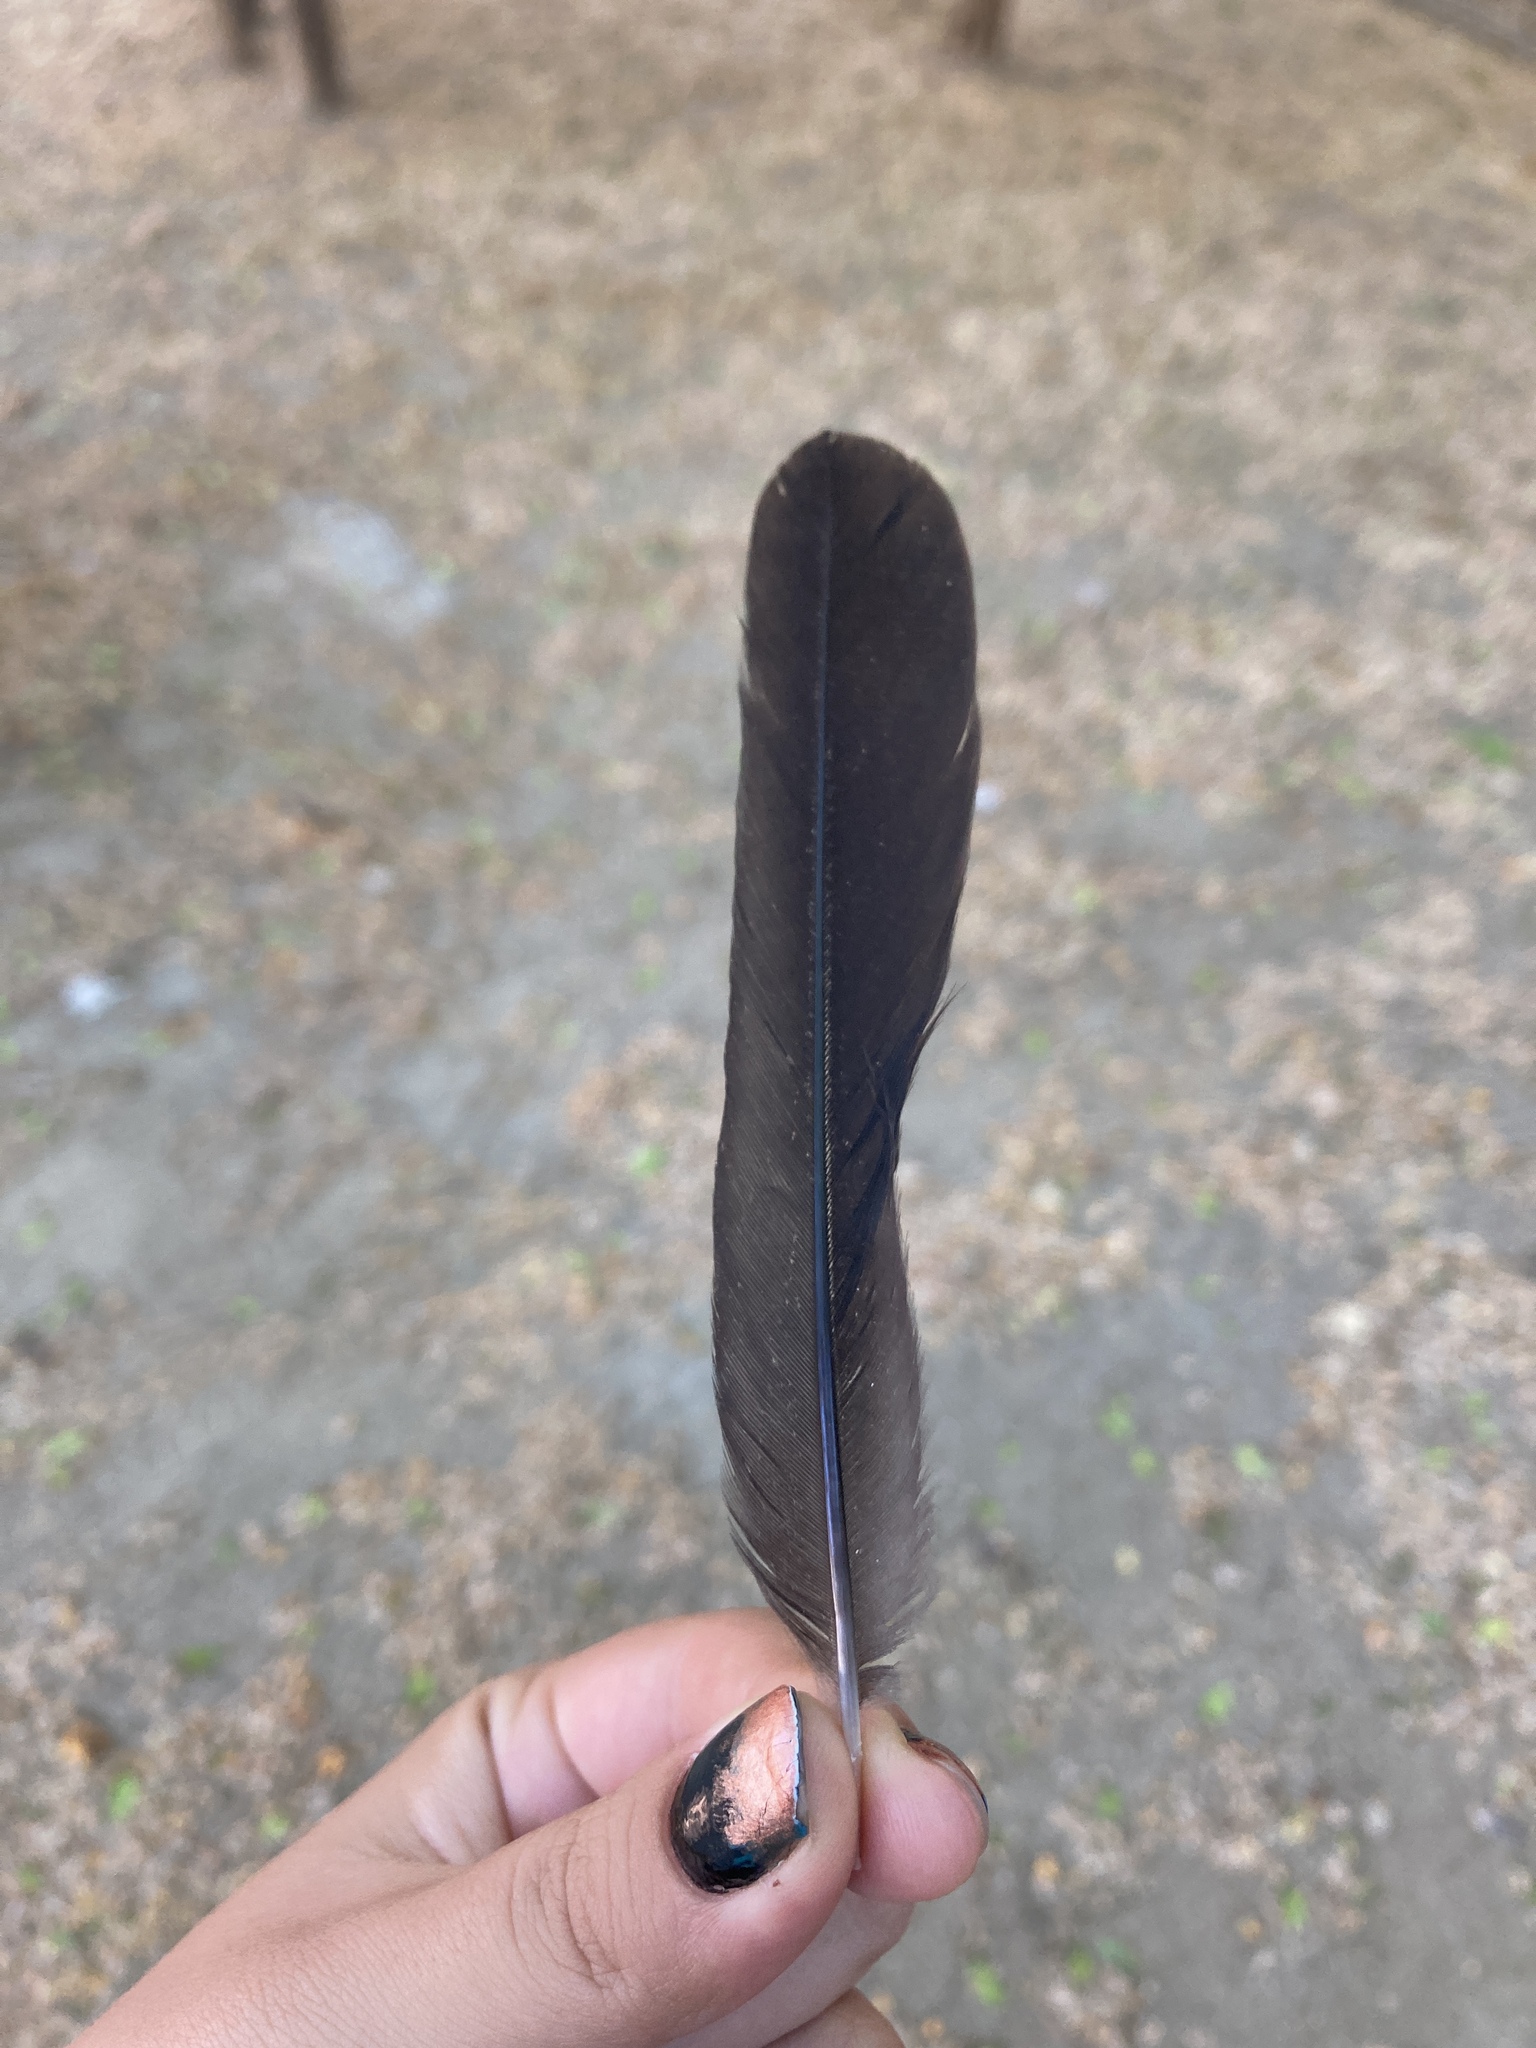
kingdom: Animalia
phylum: Chordata
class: Aves
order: Passeriformes
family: Turdidae
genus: Turdus
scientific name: Turdus merula
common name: Common blackbird
